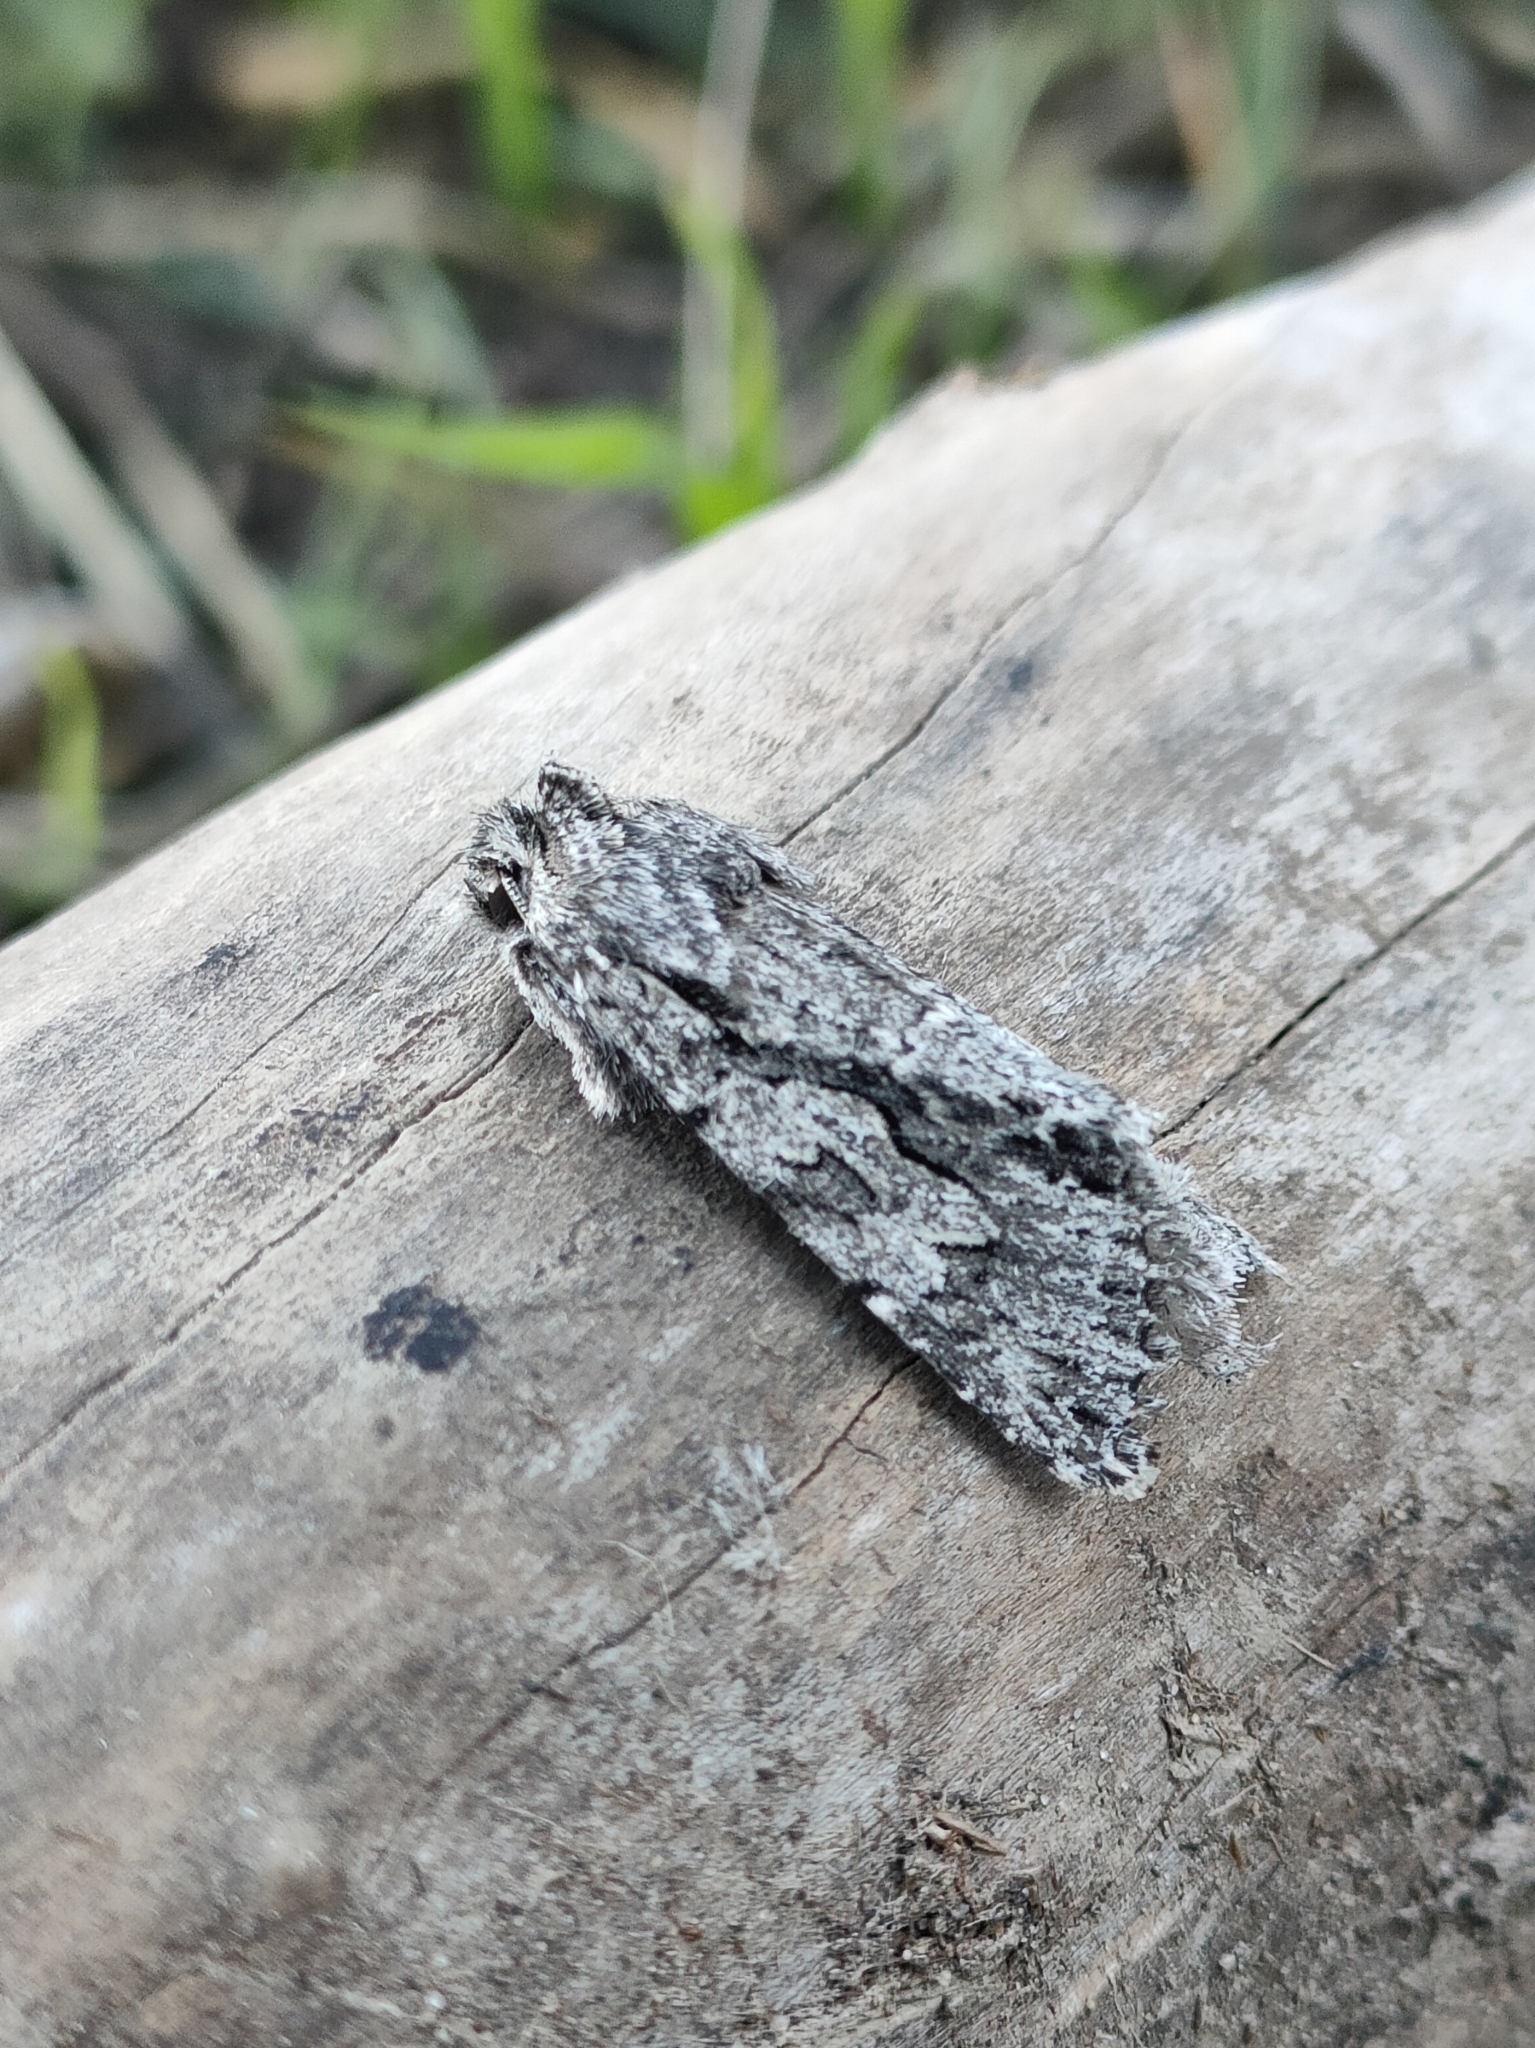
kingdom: Animalia
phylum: Arthropoda
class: Insecta
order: Lepidoptera
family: Noctuidae
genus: Xylocampa
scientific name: Xylocampa areola
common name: Early grey
